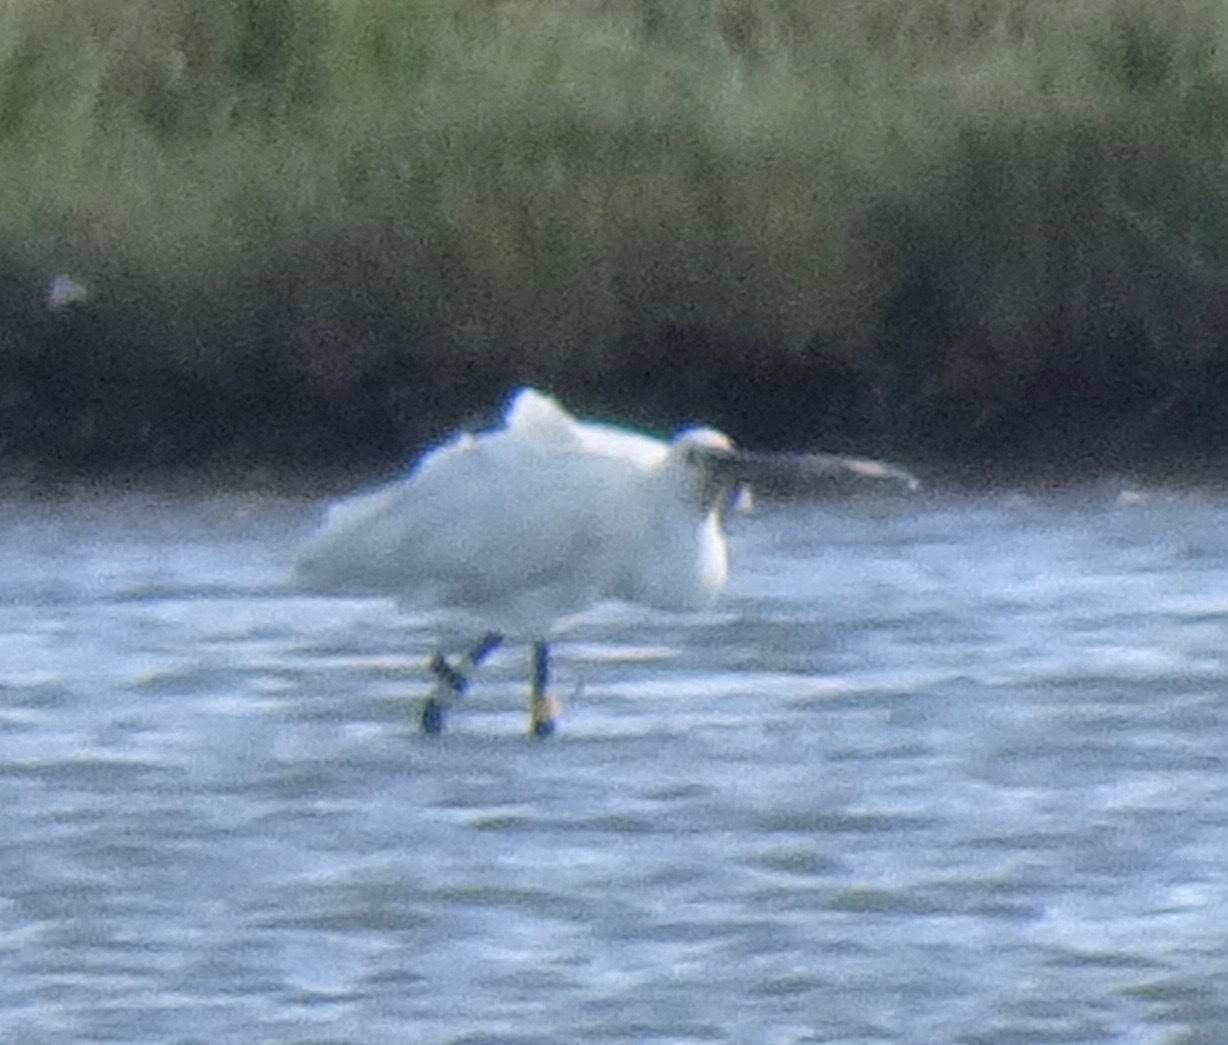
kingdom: Animalia
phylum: Chordata
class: Aves
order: Pelecaniformes
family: Threskiornithidae
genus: Platalea
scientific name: Platalea leucorodia
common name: Eurasian spoonbill
